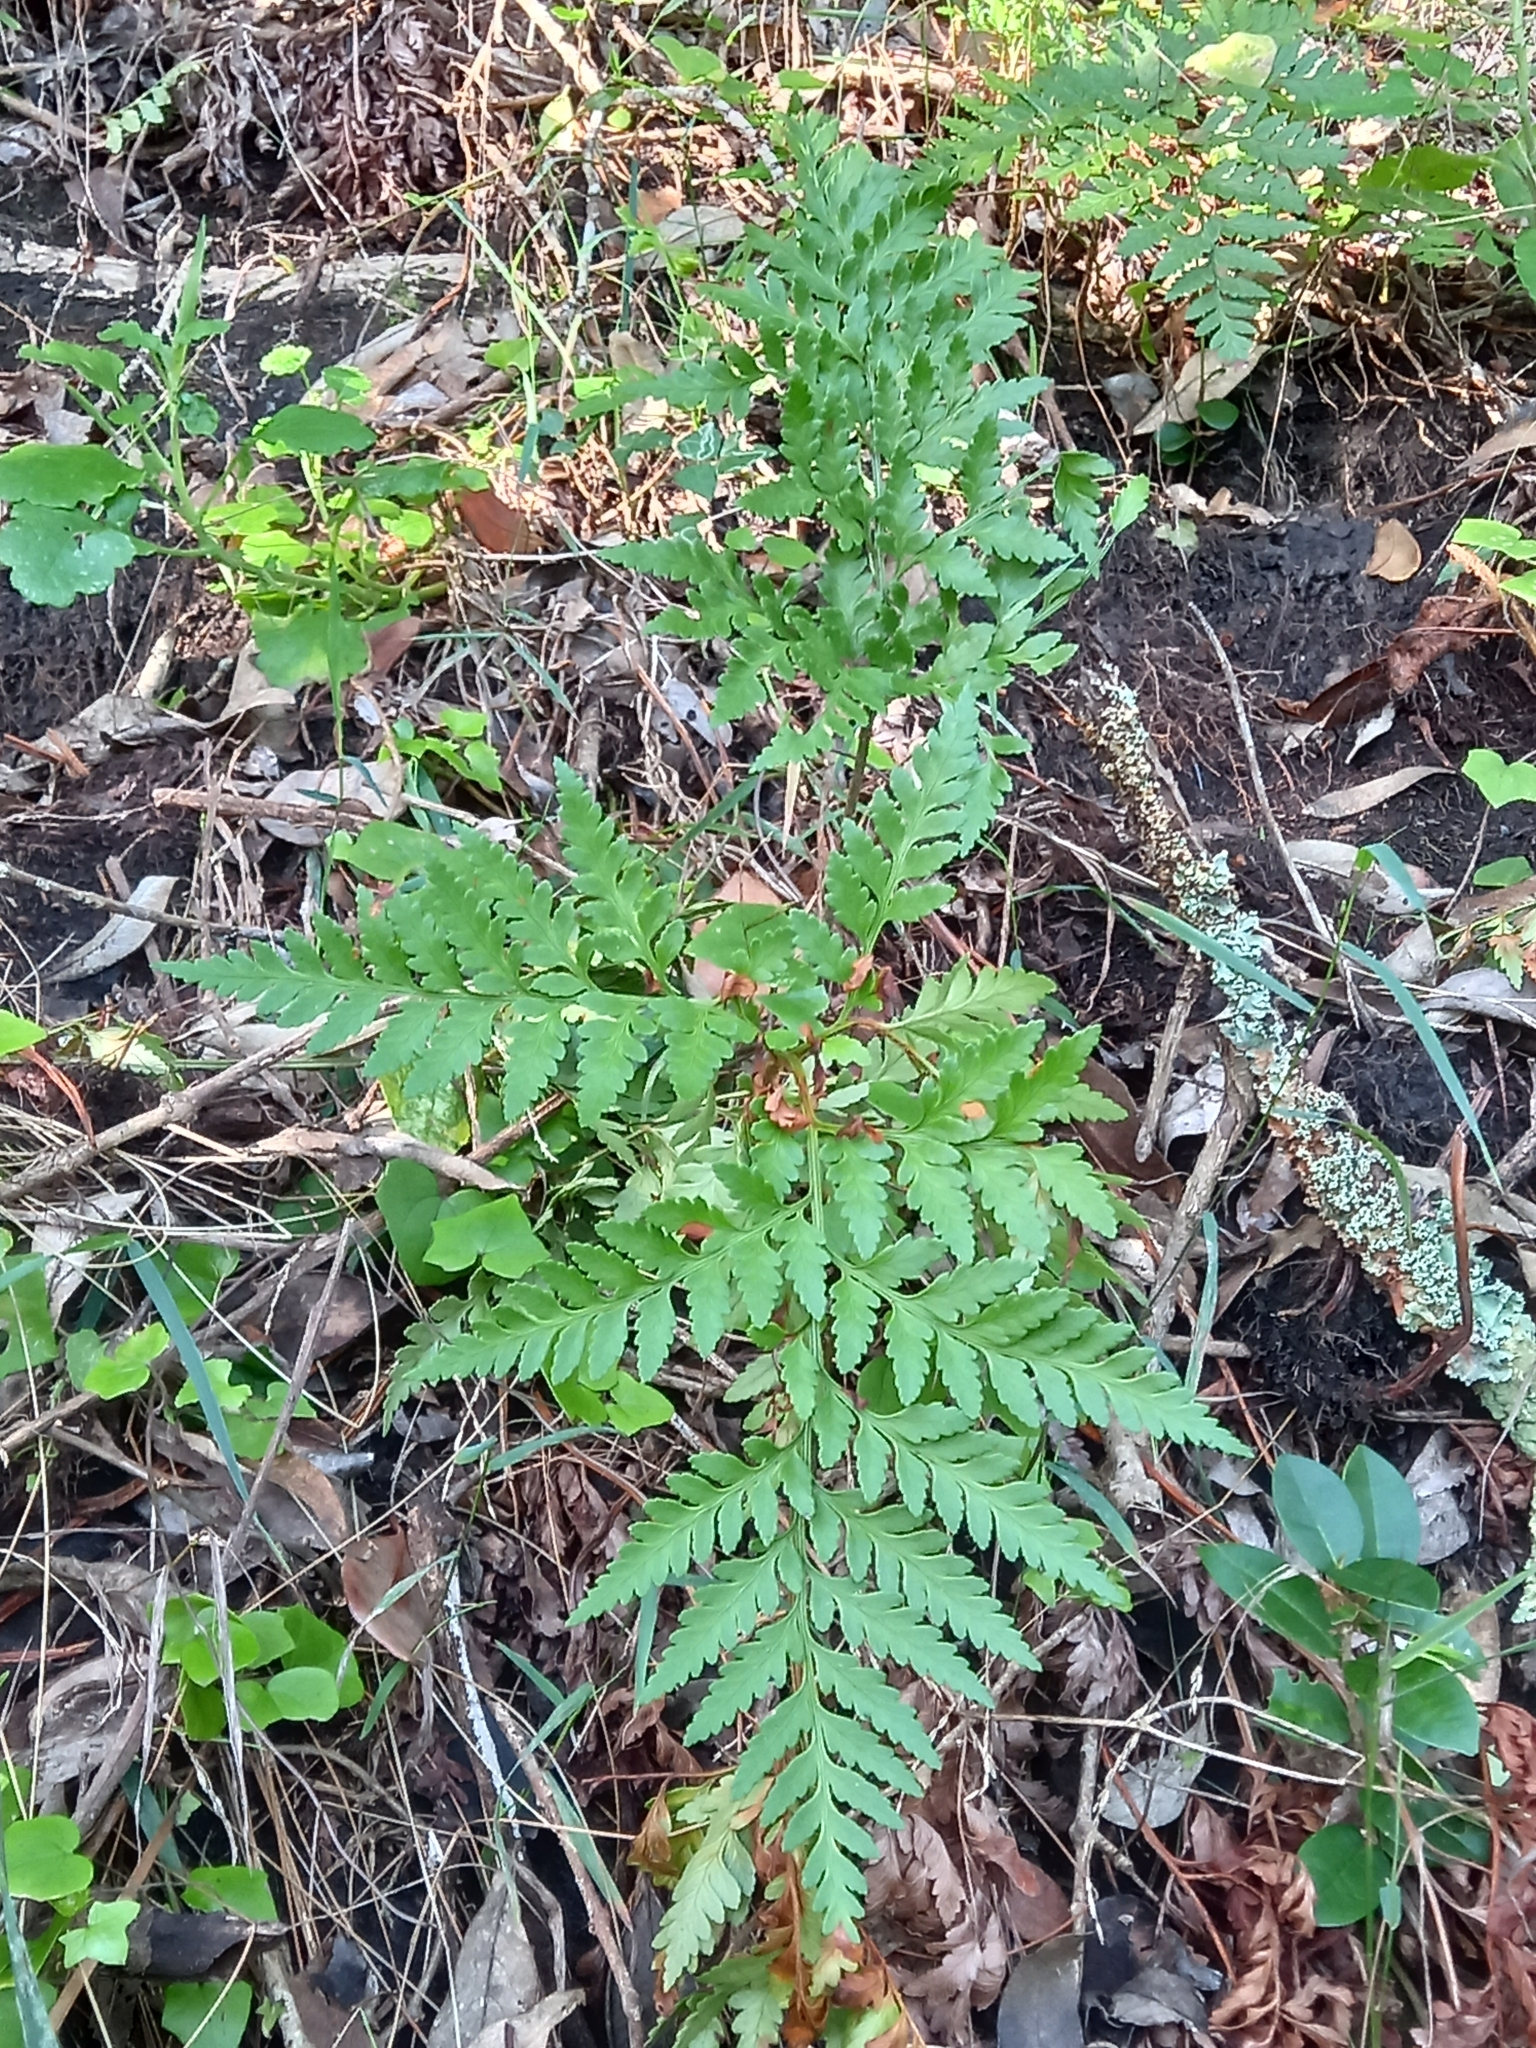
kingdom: Plantae
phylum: Tracheophyta
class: Polypodiopsida
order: Polypodiales
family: Dryopteridaceae
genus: Rumohra
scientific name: Rumohra adiantiformis
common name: Leather fern
